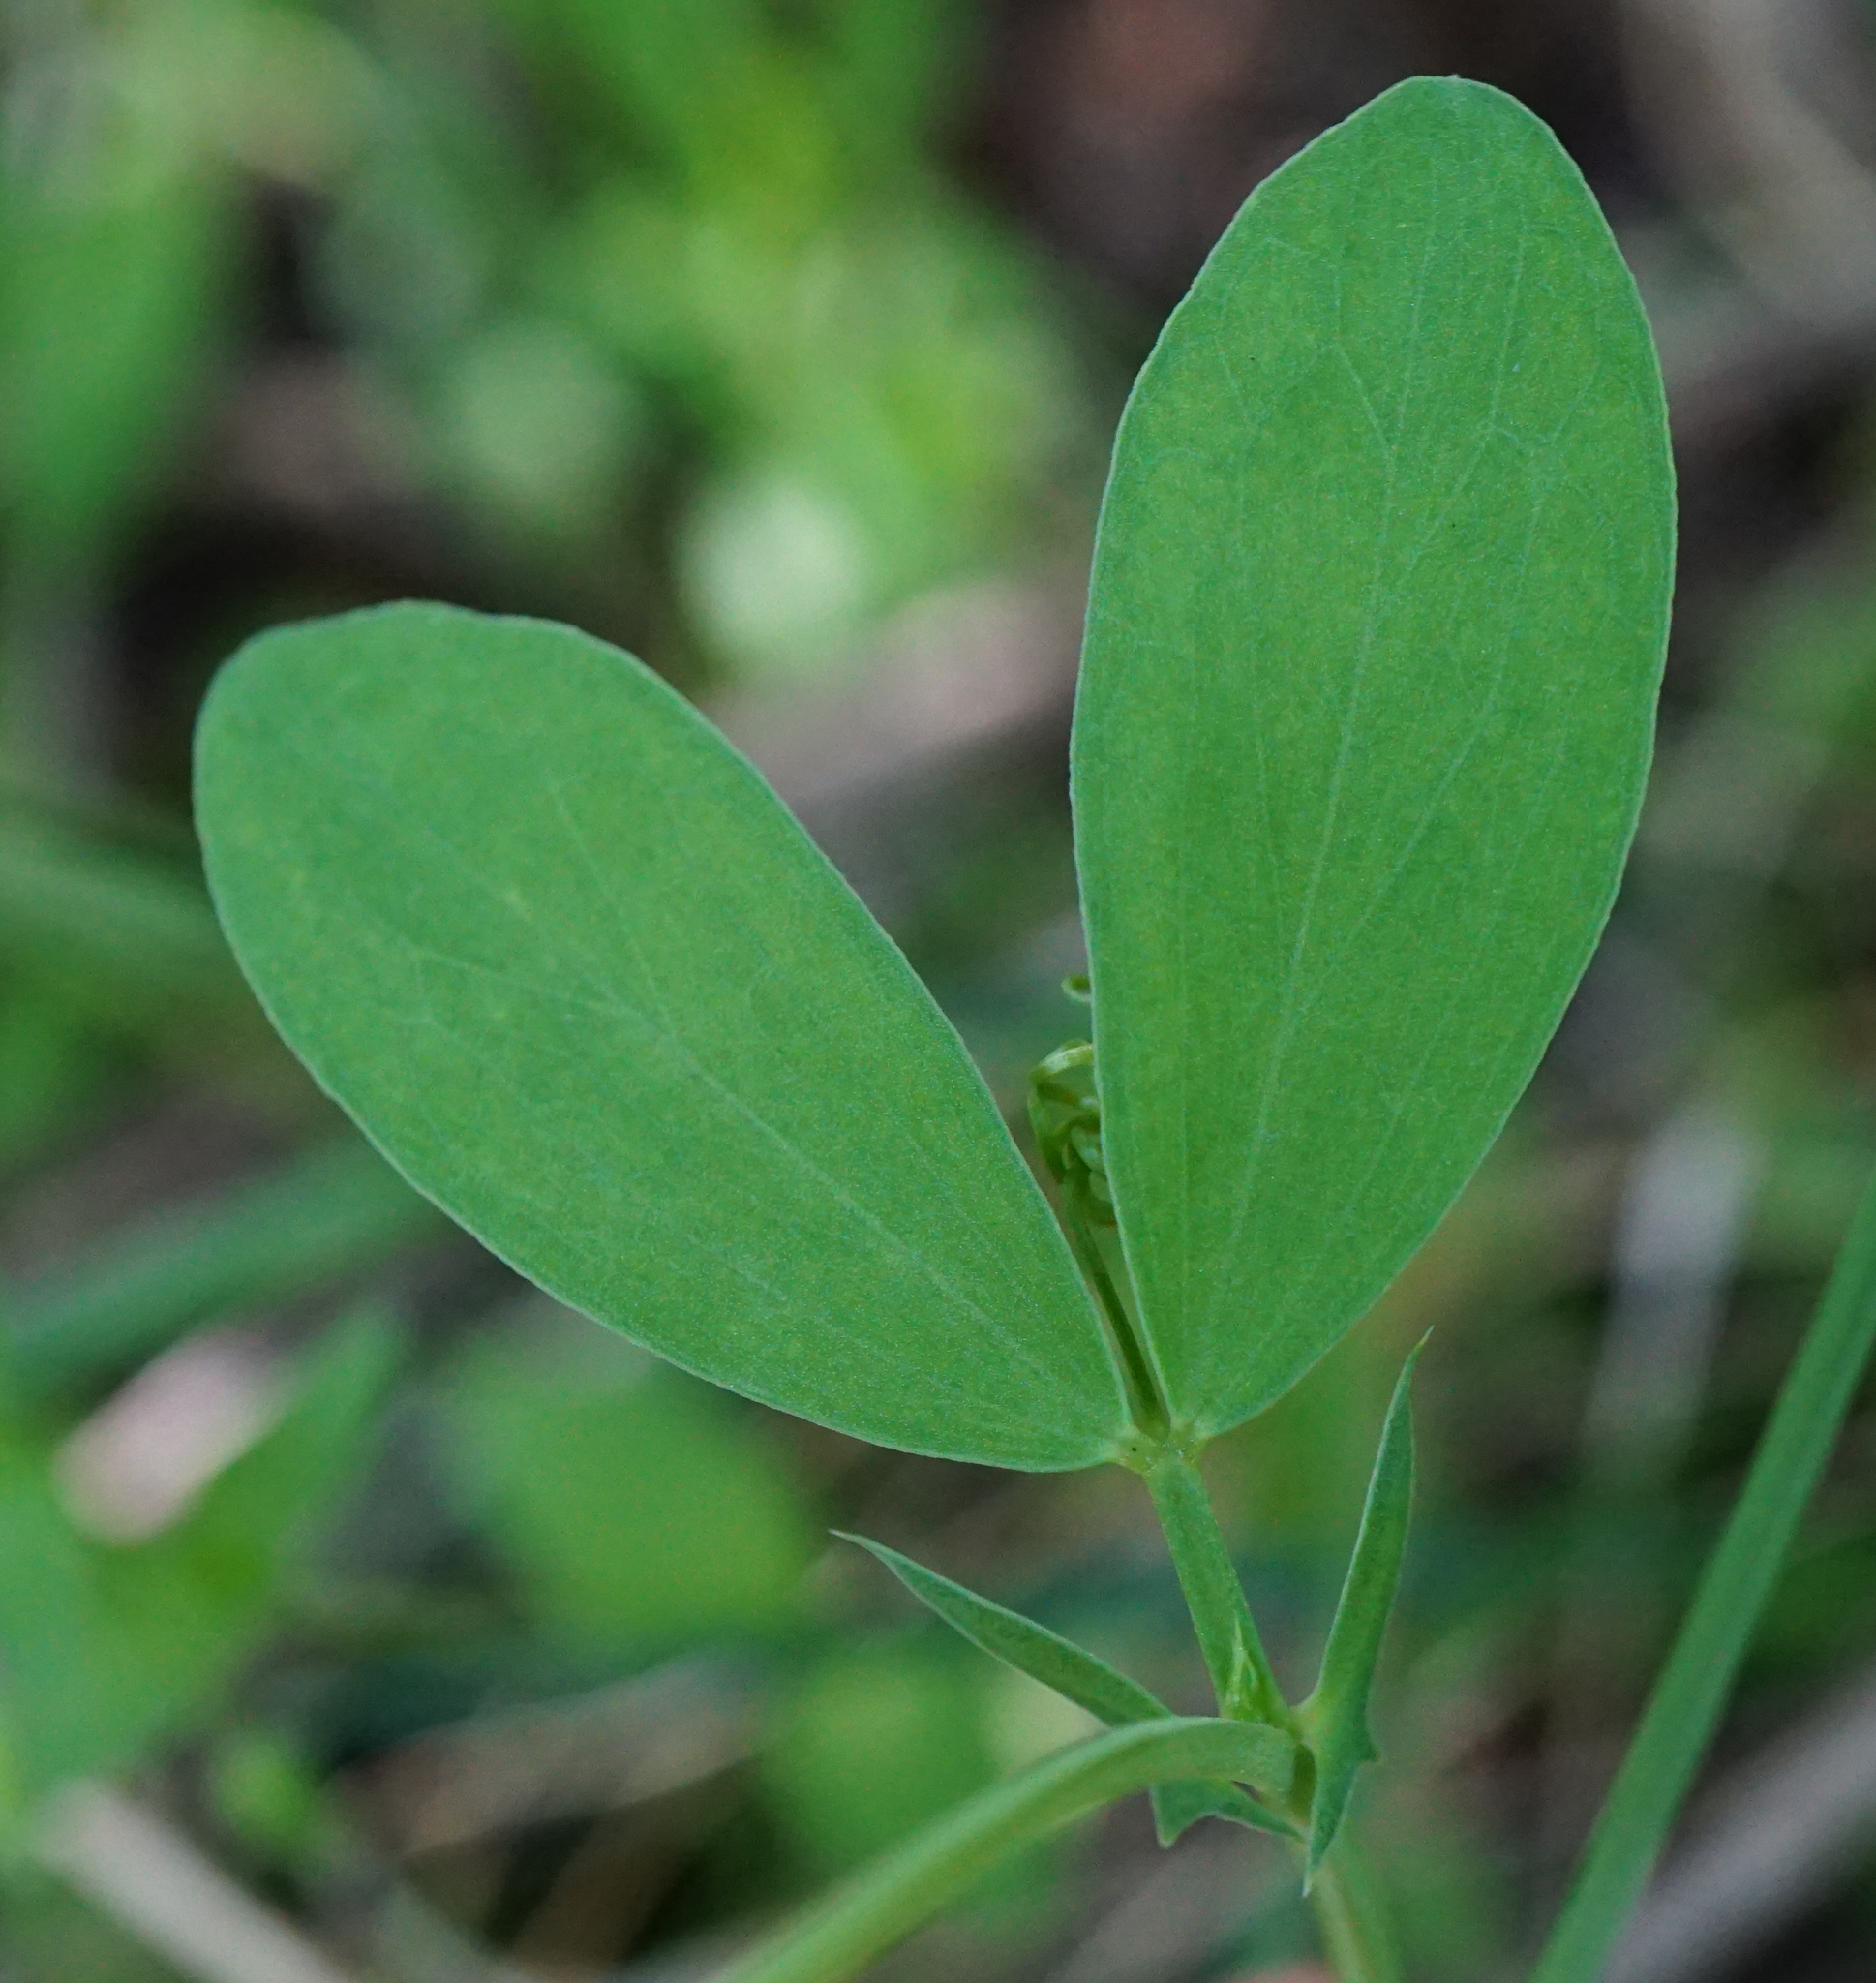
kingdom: Plantae
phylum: Tracheophyta
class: Magnoliopsida
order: Fabales
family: Fabaceae
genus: Lathyrus
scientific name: Lathyrus tuberosus
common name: Tuberous pea
